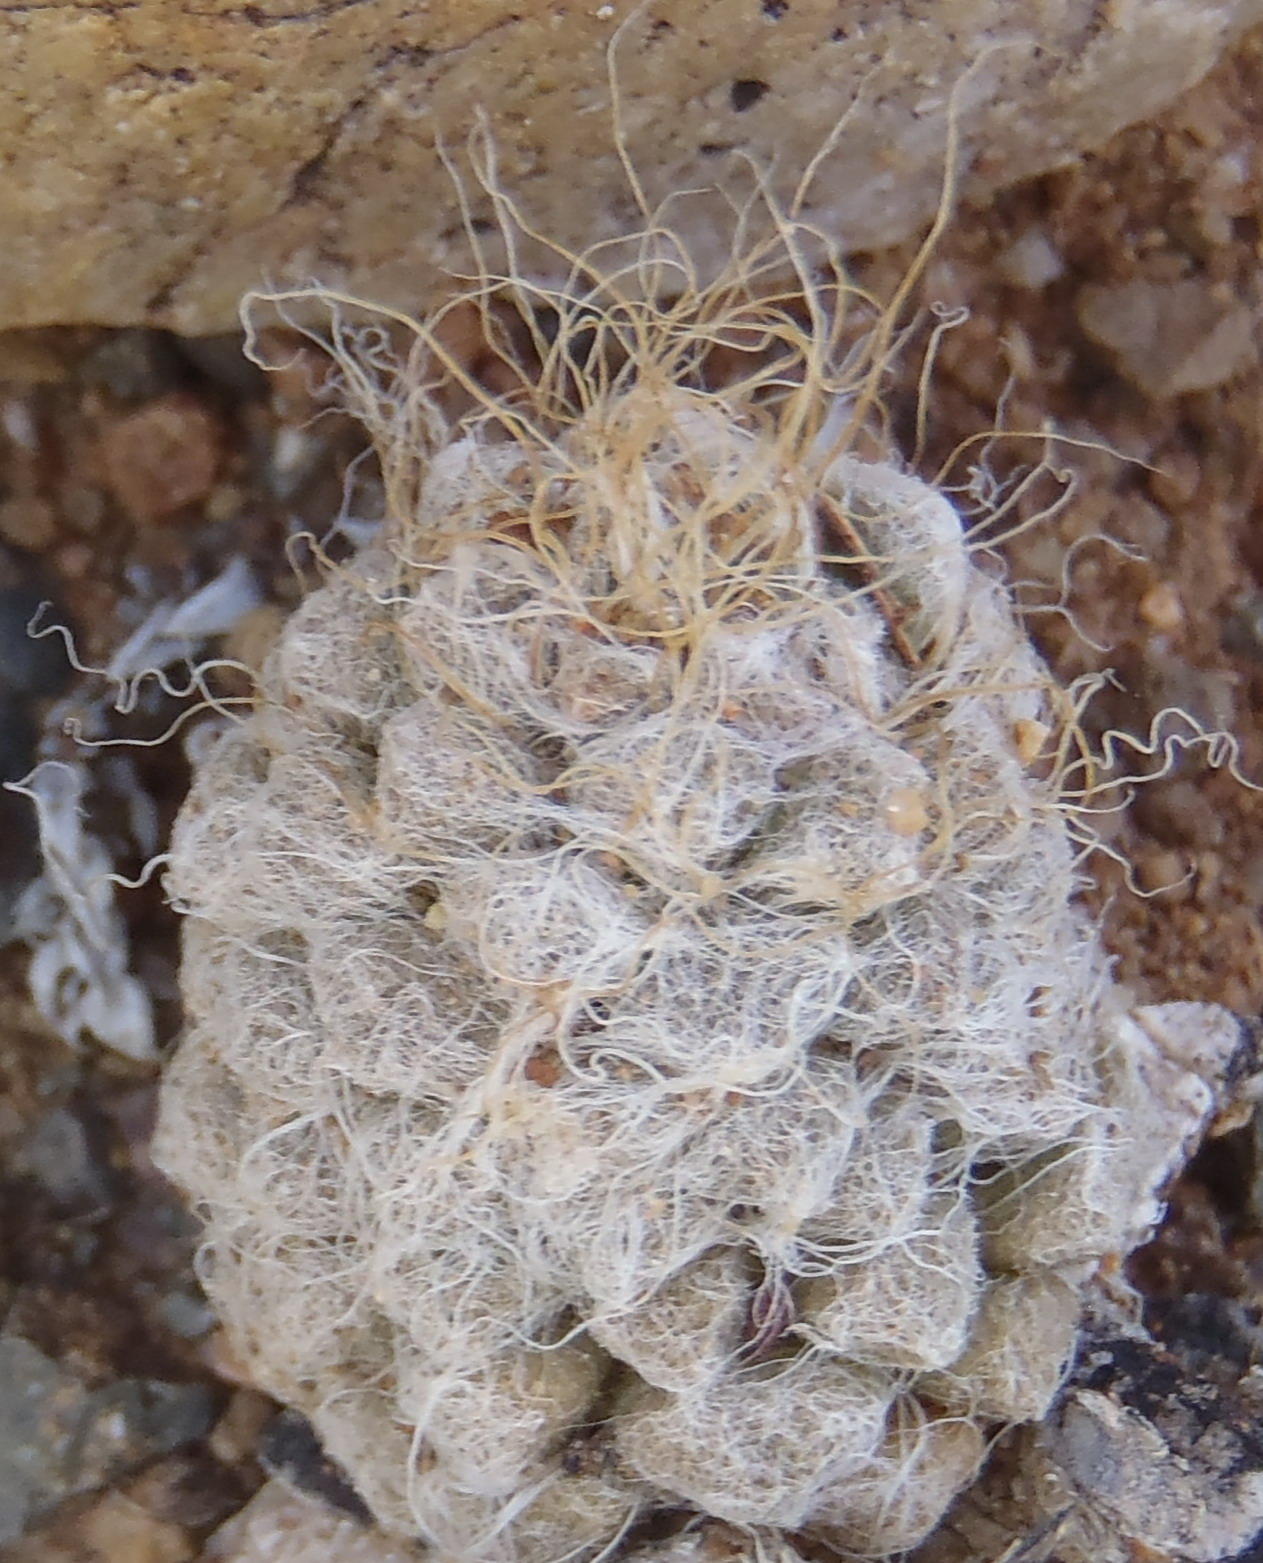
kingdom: Plantae
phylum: Tracheophyta
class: Magnoliopsida
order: Caryophyllales
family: Anacampserotaceae
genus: Anacampseros
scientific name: Anacampseros albidiflora
